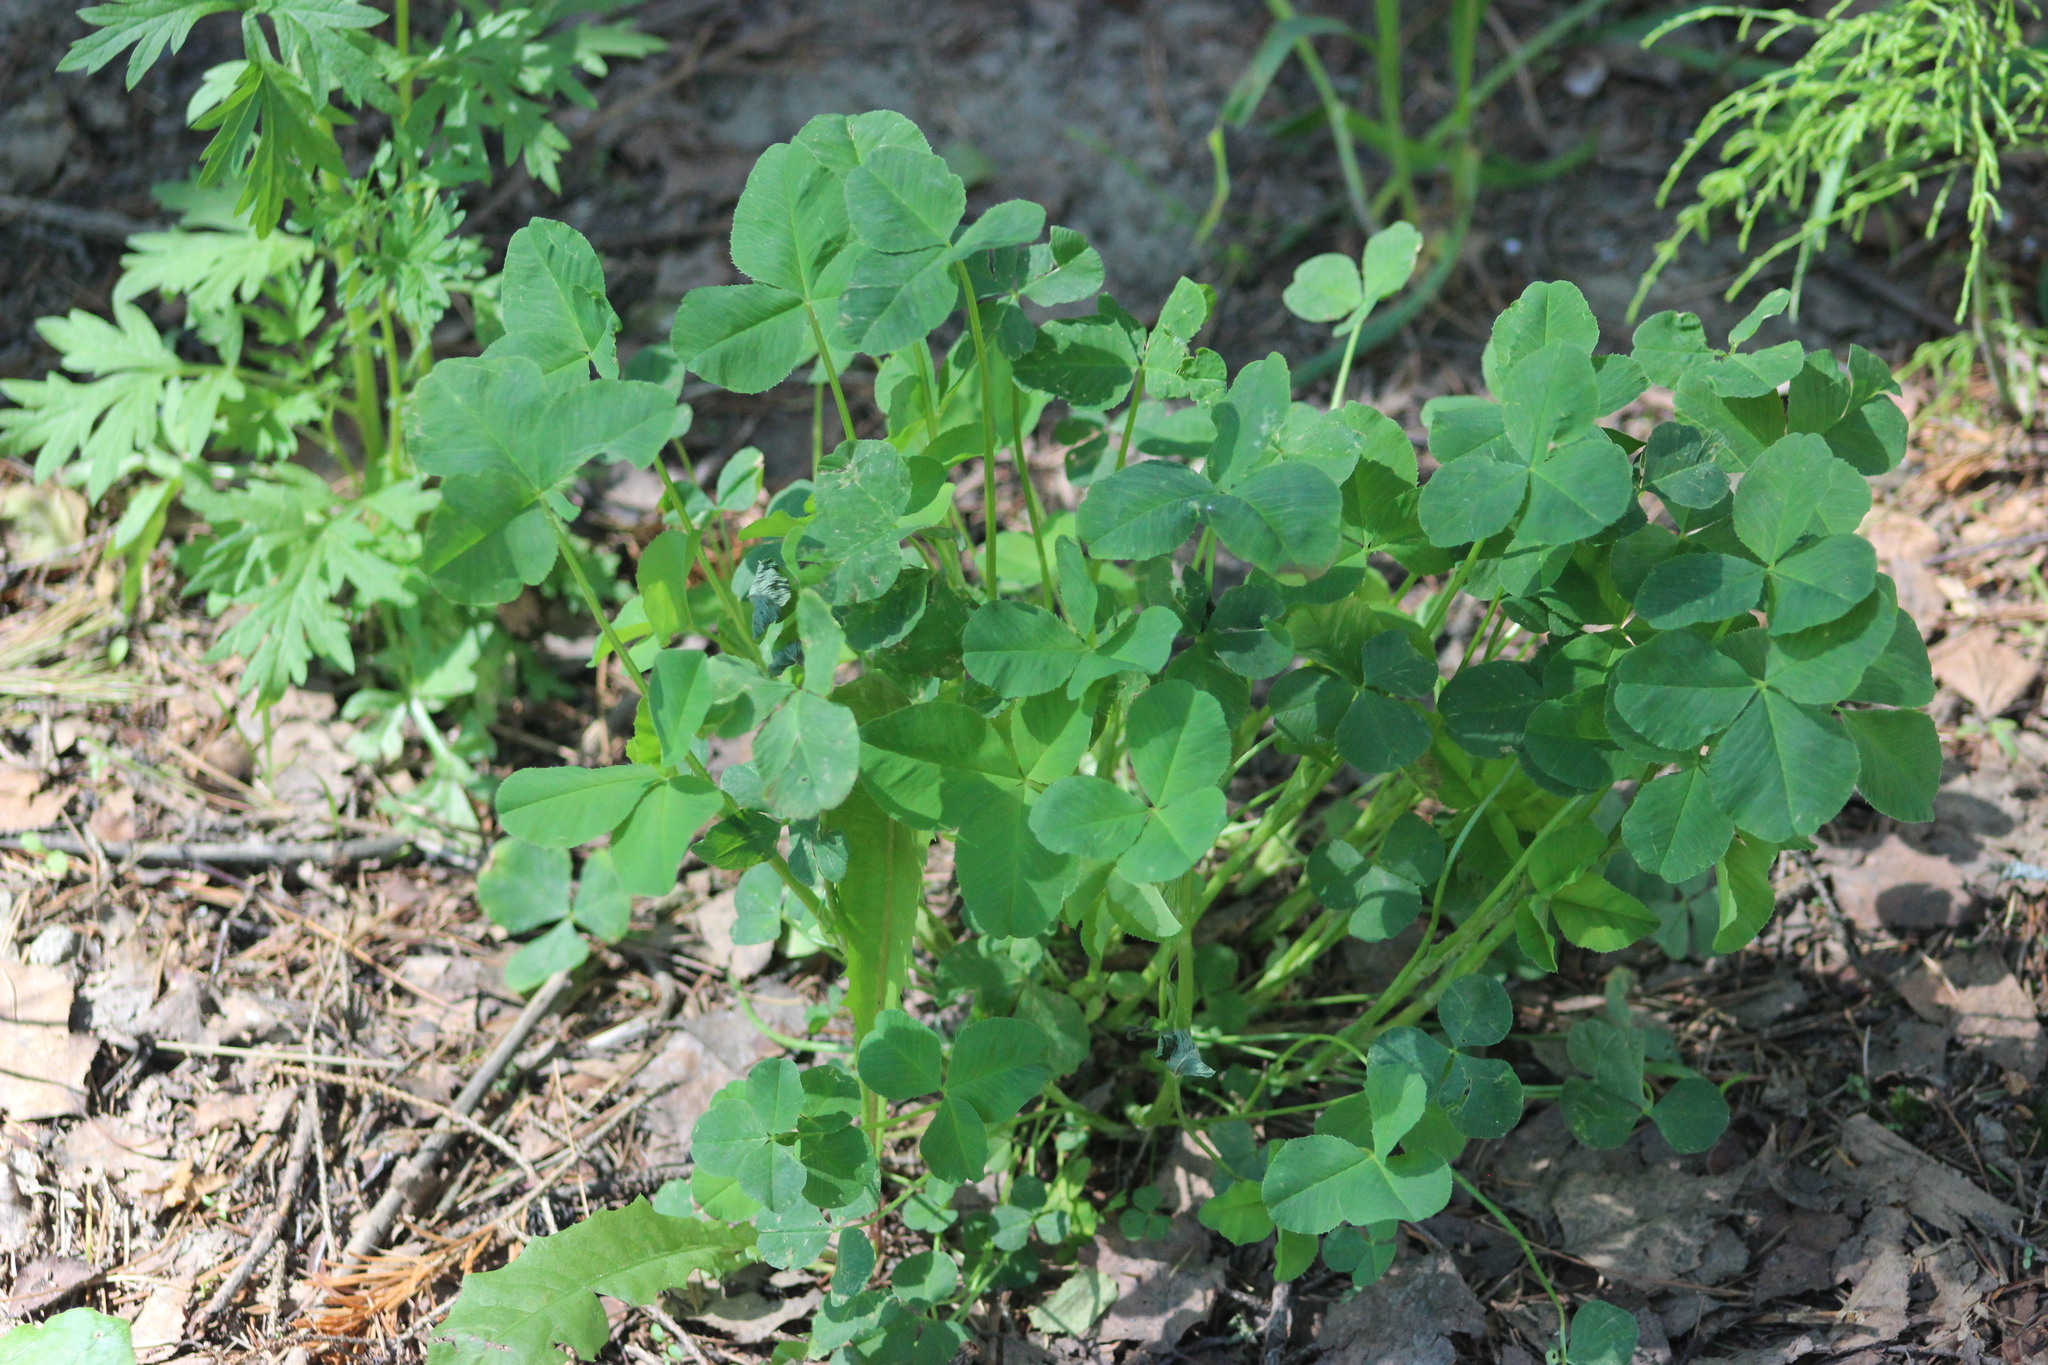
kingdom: Plantae
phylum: Tracheophyta
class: Magnoliopsida
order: Fabales
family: Fabaceae
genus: Trifolium
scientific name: Trifolium hybridum
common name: Alsike clover
